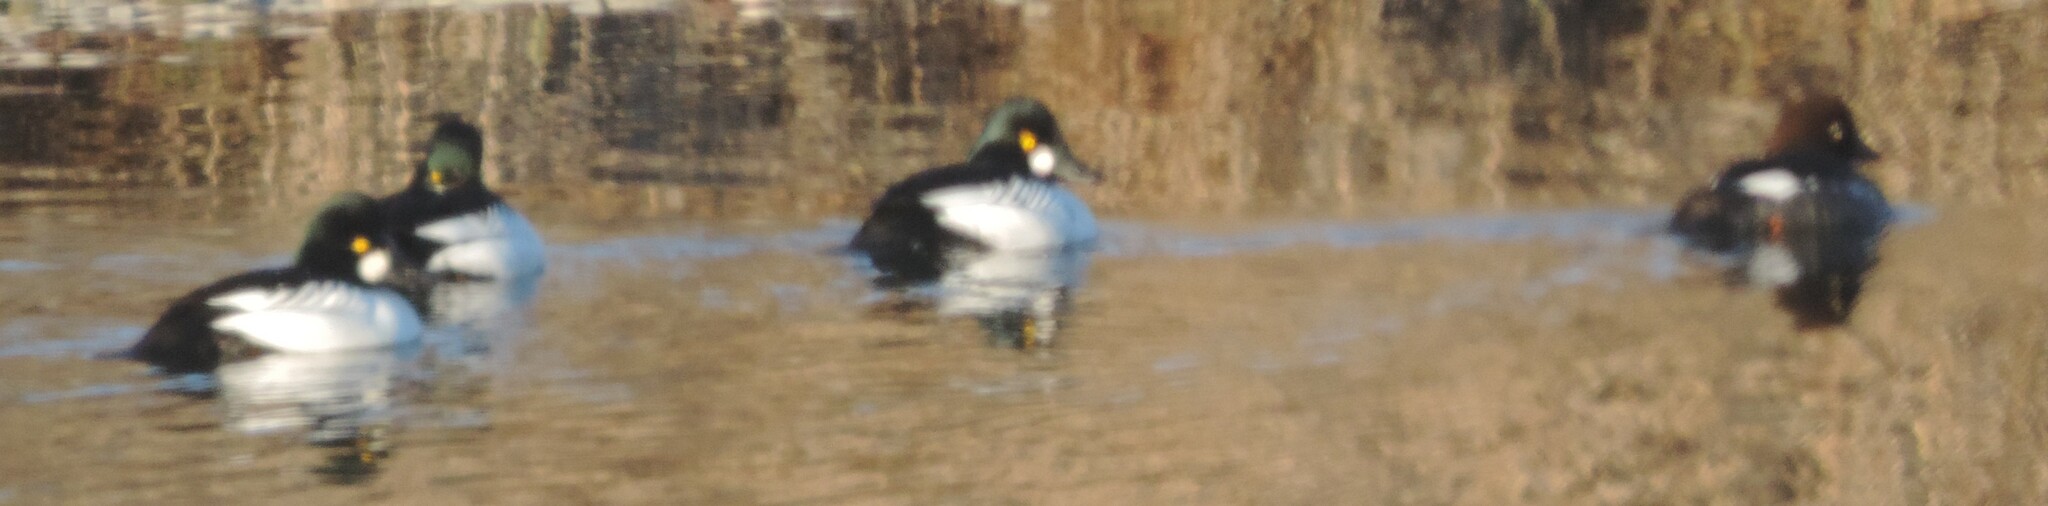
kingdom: Animalia
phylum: Chordata
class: Aves
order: Anseriformes
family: Anatidae
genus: Bucephala
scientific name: Bucephala clangula
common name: Common goldeneye
